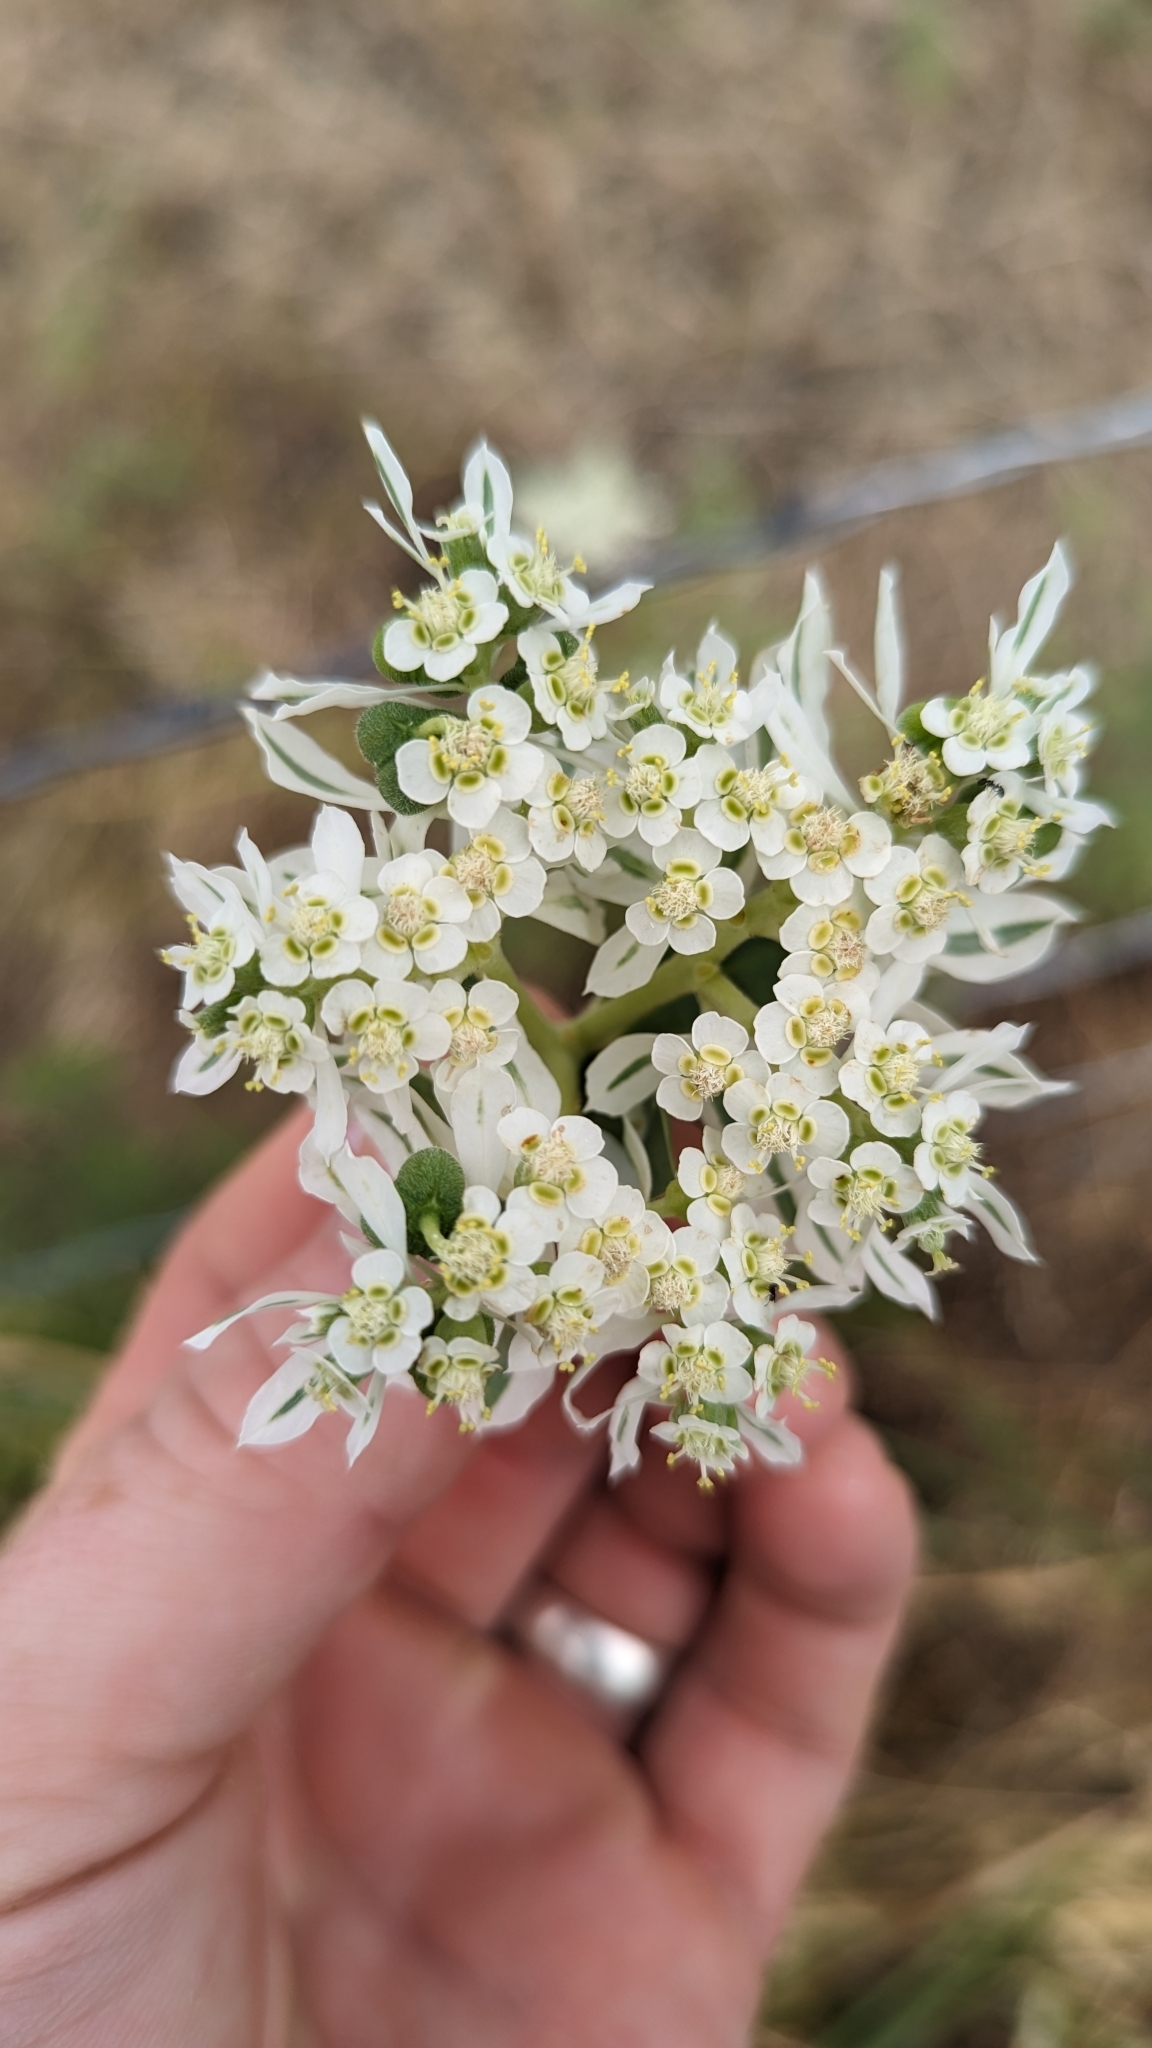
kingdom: Plantae
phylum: Tracheophyta
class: Magnoliopsida
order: Malpighiales
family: Euphorbiaceae
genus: Euphorbia
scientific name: Euphorbia marginata
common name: Ghostweed
